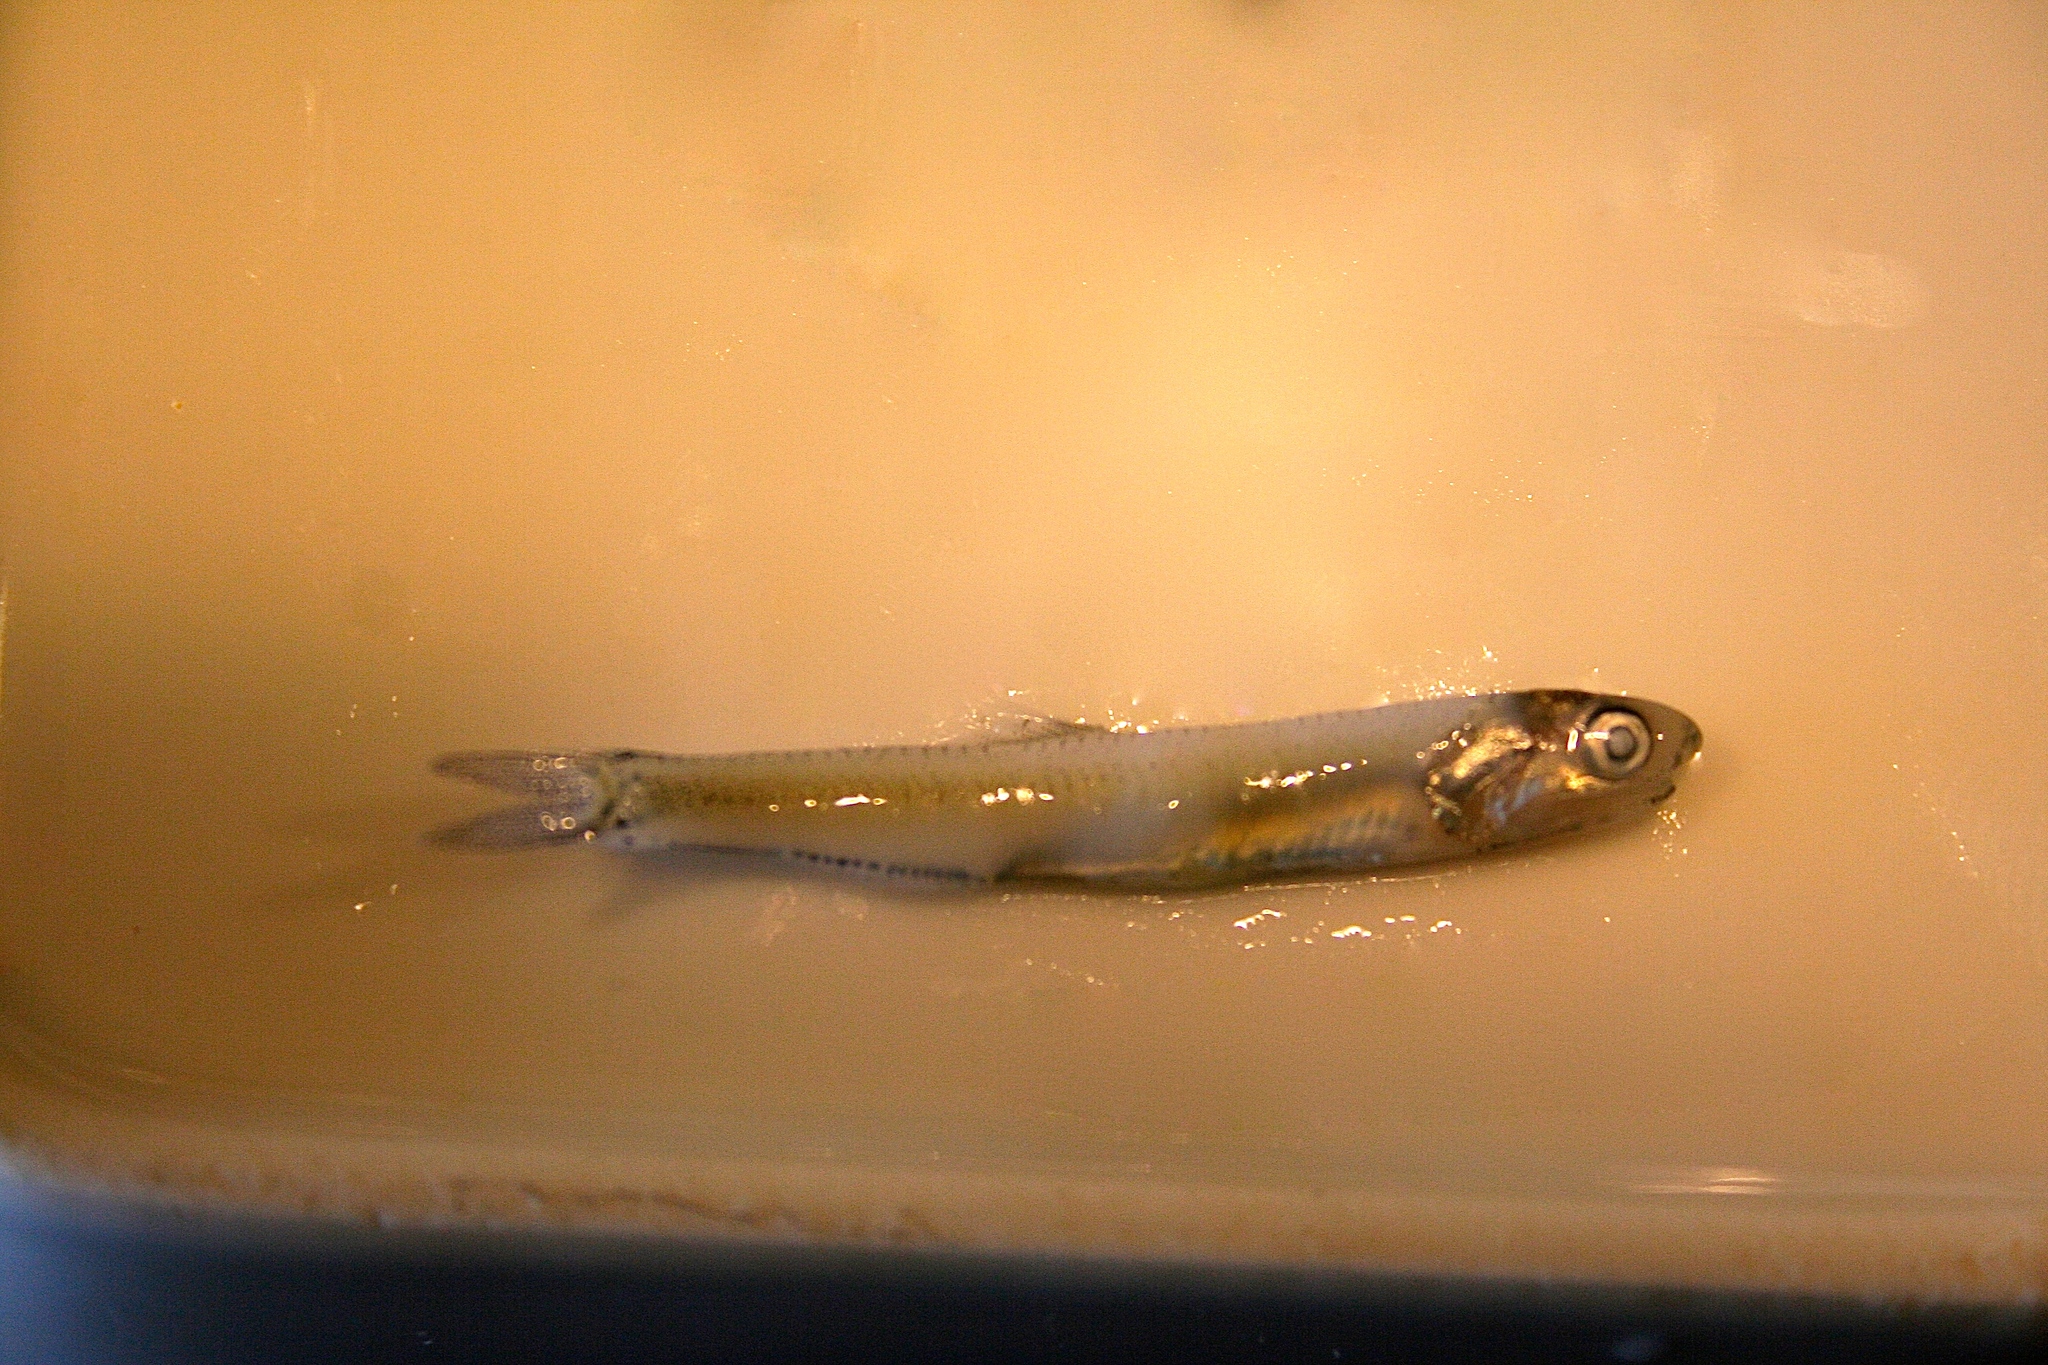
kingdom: Animalia
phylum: Chordata
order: Clupeiformes
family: Engraulidae
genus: Engraulis
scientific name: Engraulis mordax
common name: Northern anchovy
